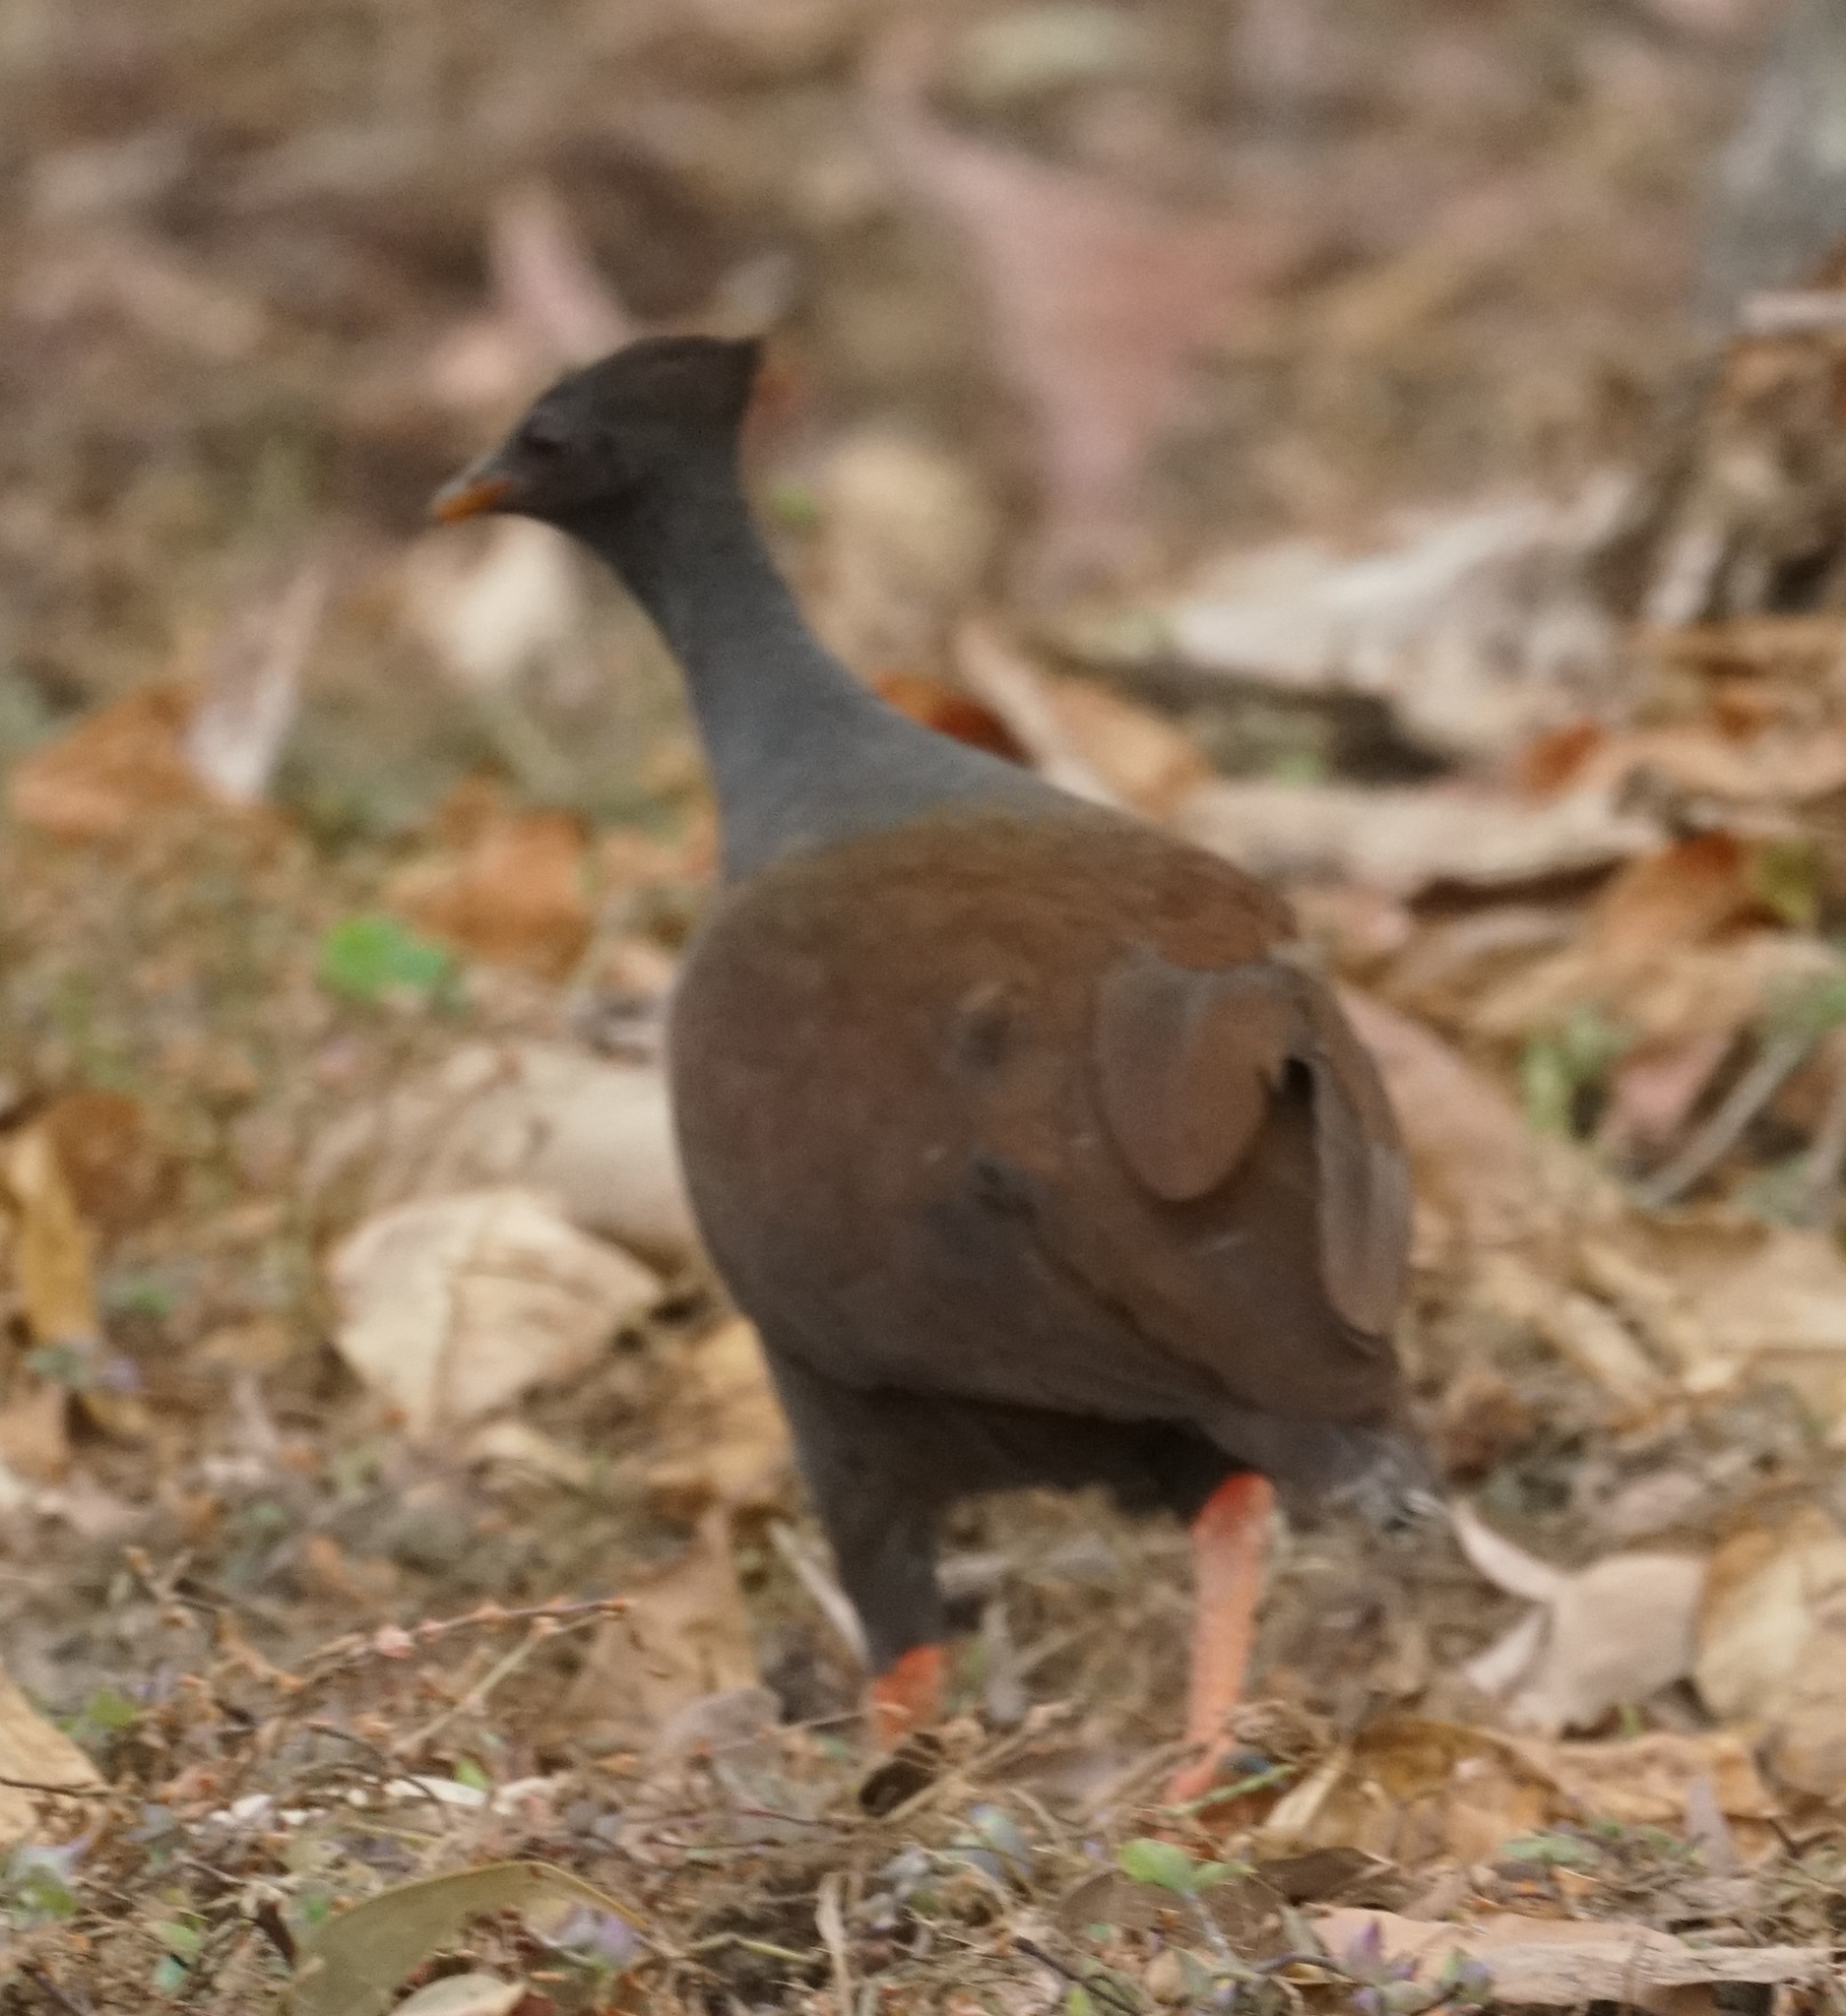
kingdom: Animalia
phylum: Chordata
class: Aves
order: Galliformes
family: Megapodiidae
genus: Megapodius
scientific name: Megapodius reinwardt
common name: Orange-footed scrubfowl
